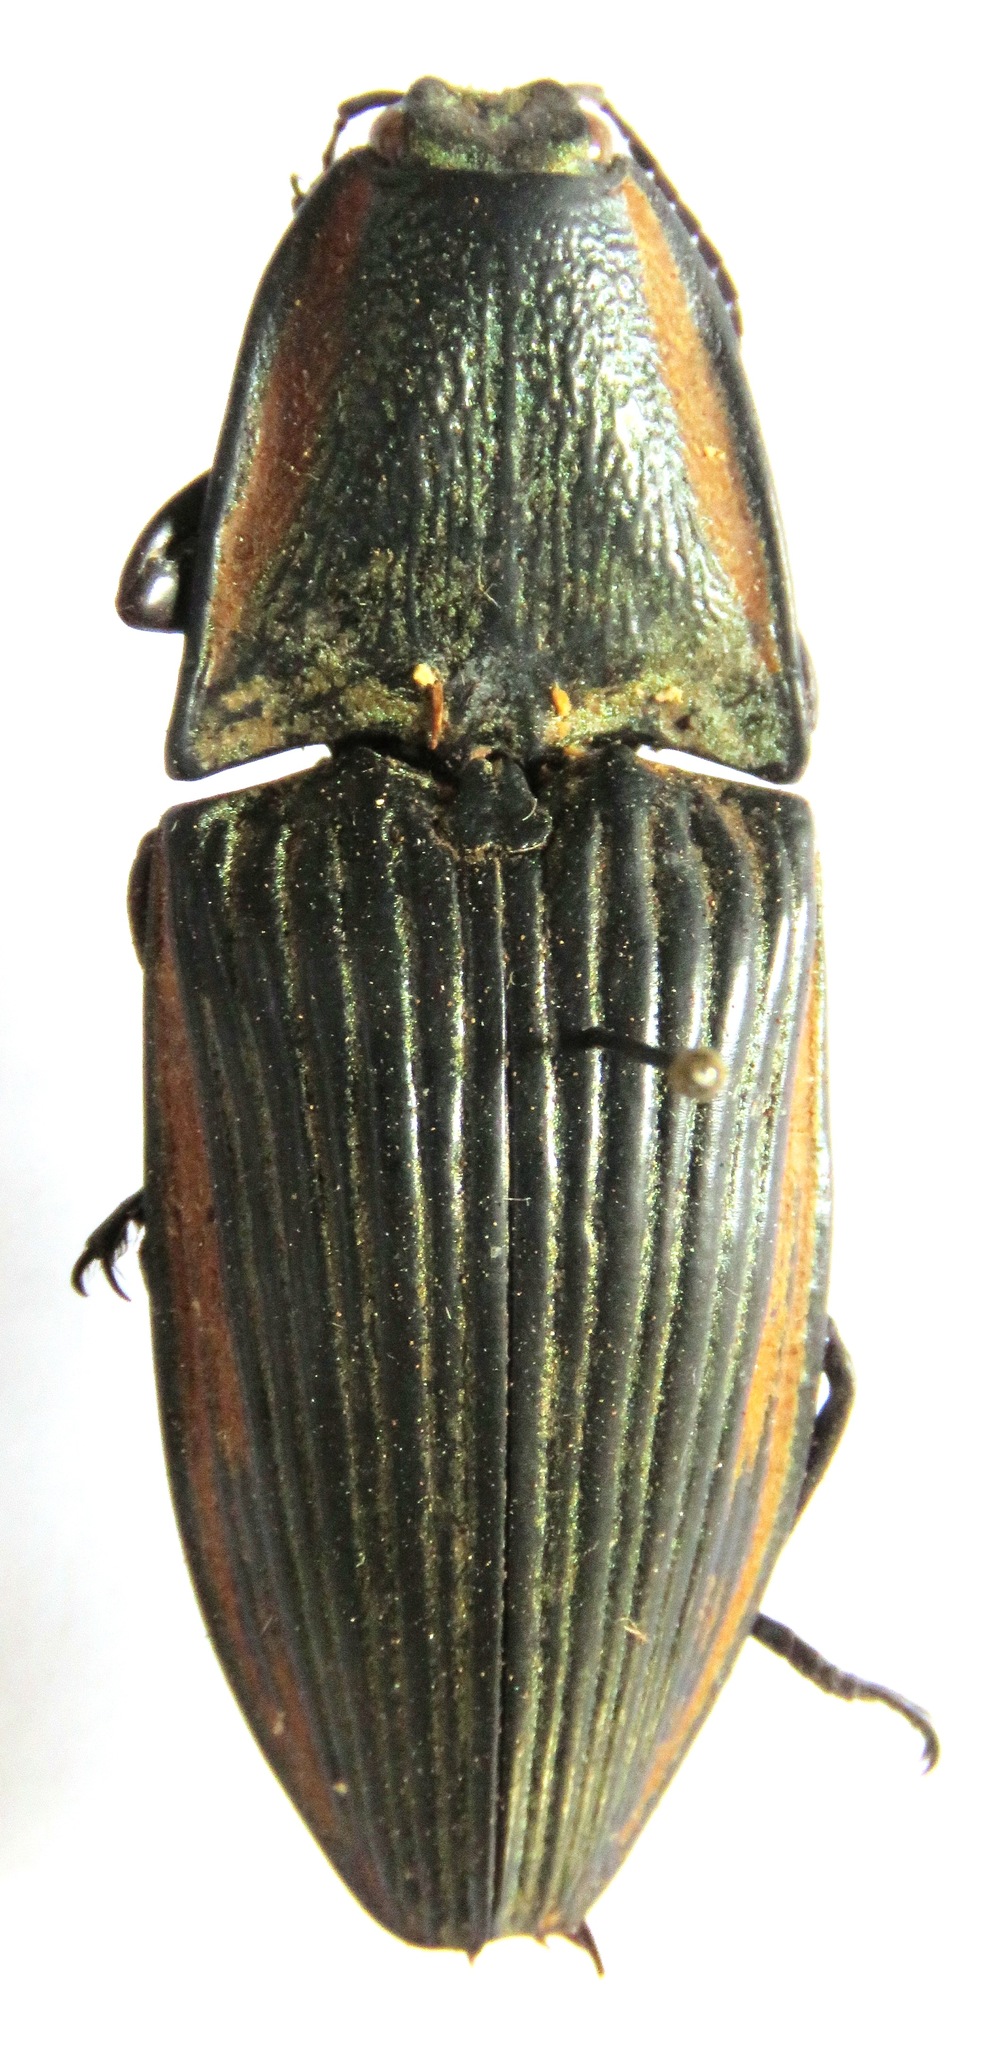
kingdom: Animalia
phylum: Arthropoda
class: Insecta
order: Coleoptera
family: Elateridae
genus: Chalcolepidius
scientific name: Chalcolepidius
